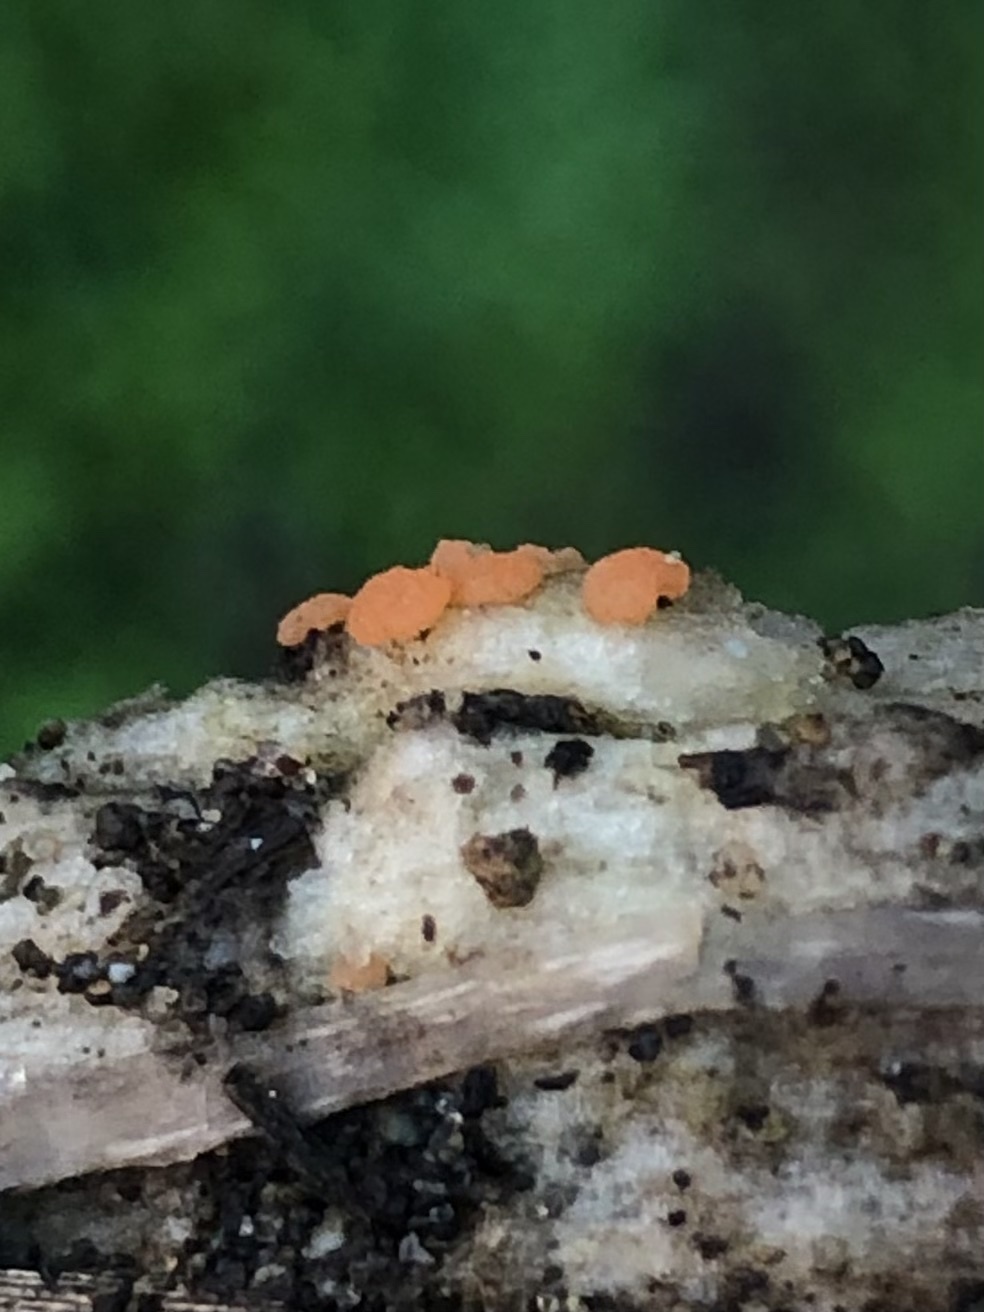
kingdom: Fungi
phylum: Basidiomycota
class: Dacrymycetes
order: Dacrymycetales
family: Dacrymycetaceae
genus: Dacrymyces
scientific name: Dacrymyces stillatus
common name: Common jelly spot
